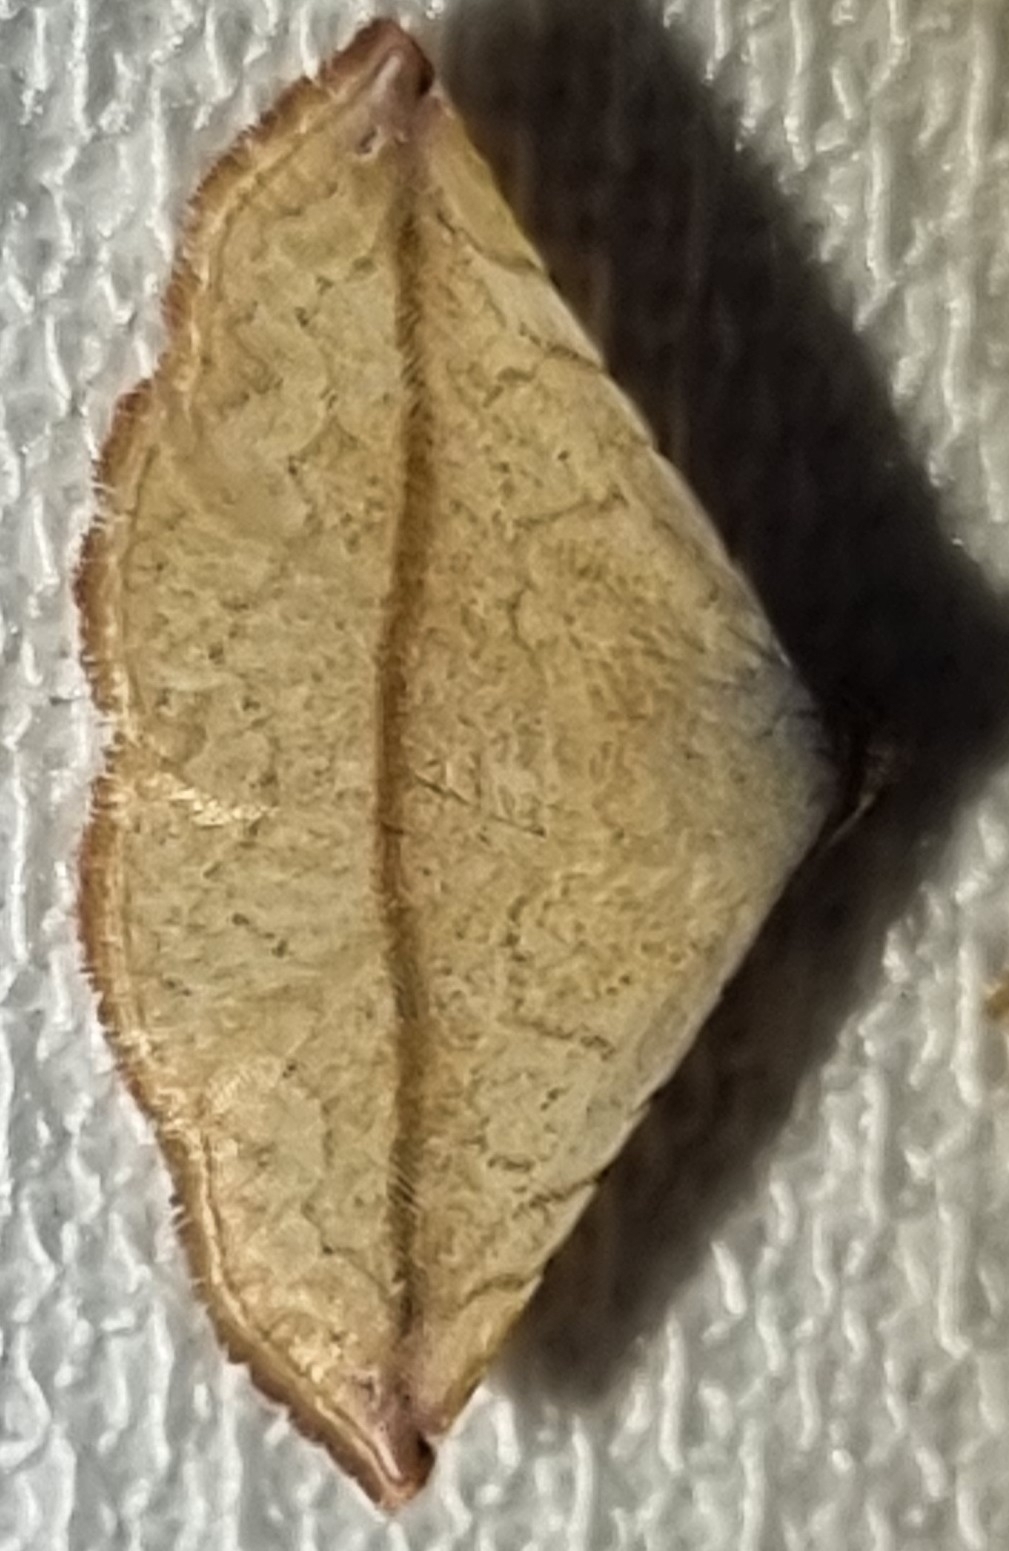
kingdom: Animalia
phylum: Arthropoda
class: Insecta
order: Lepidoptera
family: Noctuidae
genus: Eublemma
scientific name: Eublemma perversicolor
